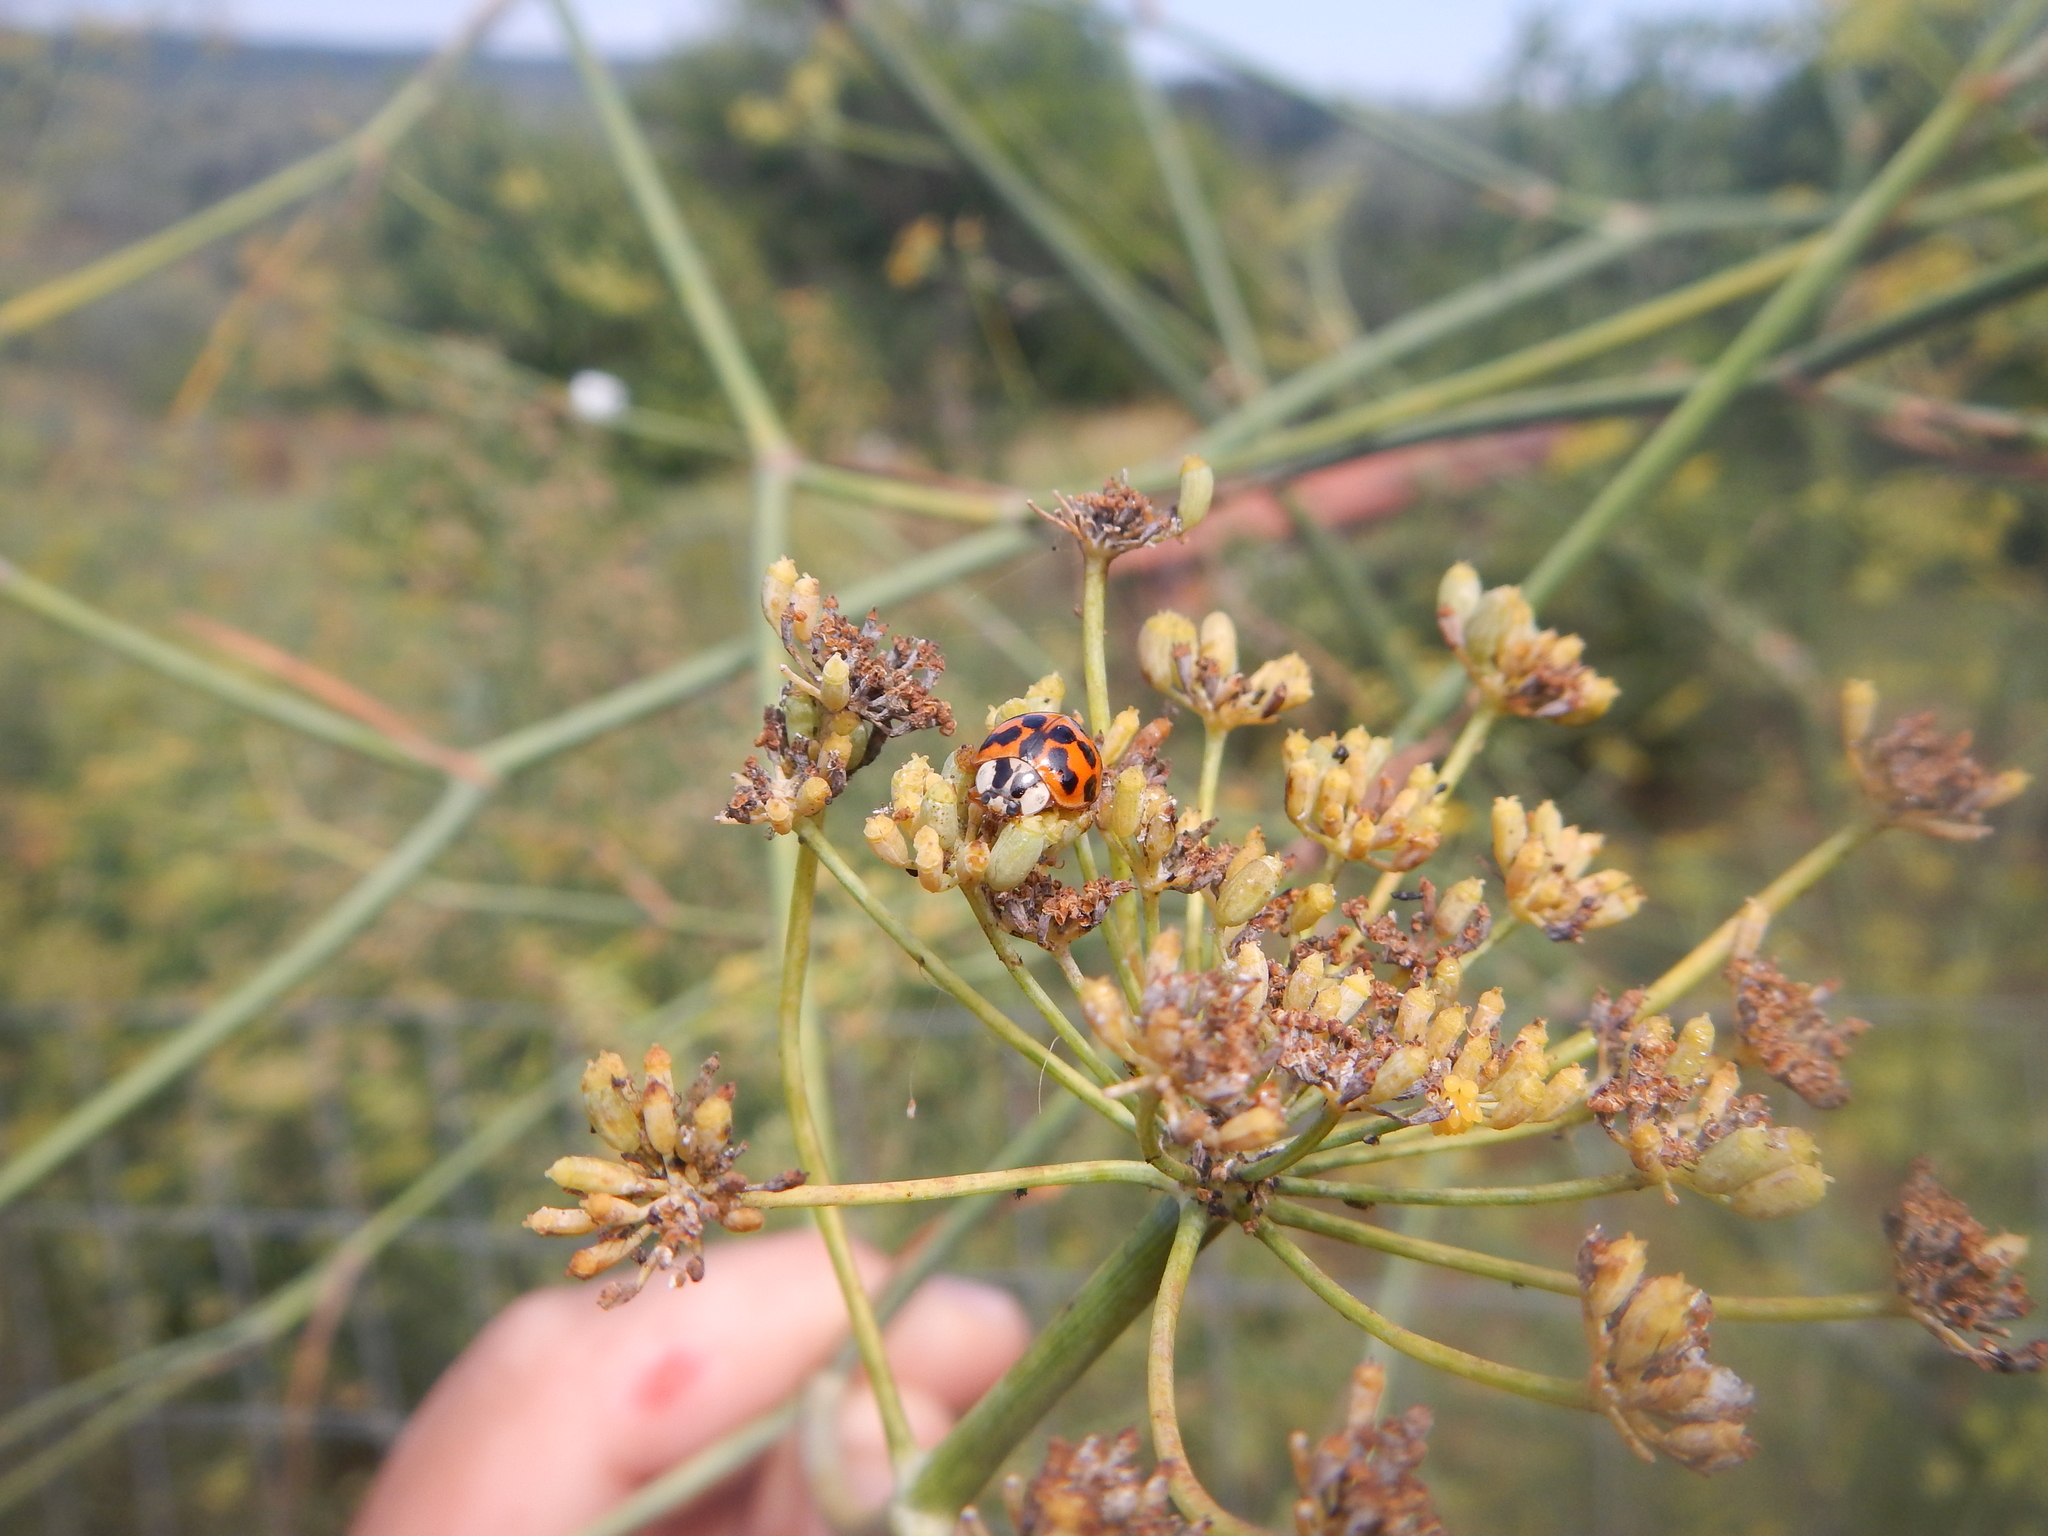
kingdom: Animalia
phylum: Arthropoda
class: Insecta
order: Coleoptera
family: Coccinellidae
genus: Harmonia
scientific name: Harmonia axyridis
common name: Harlequin ladybird
